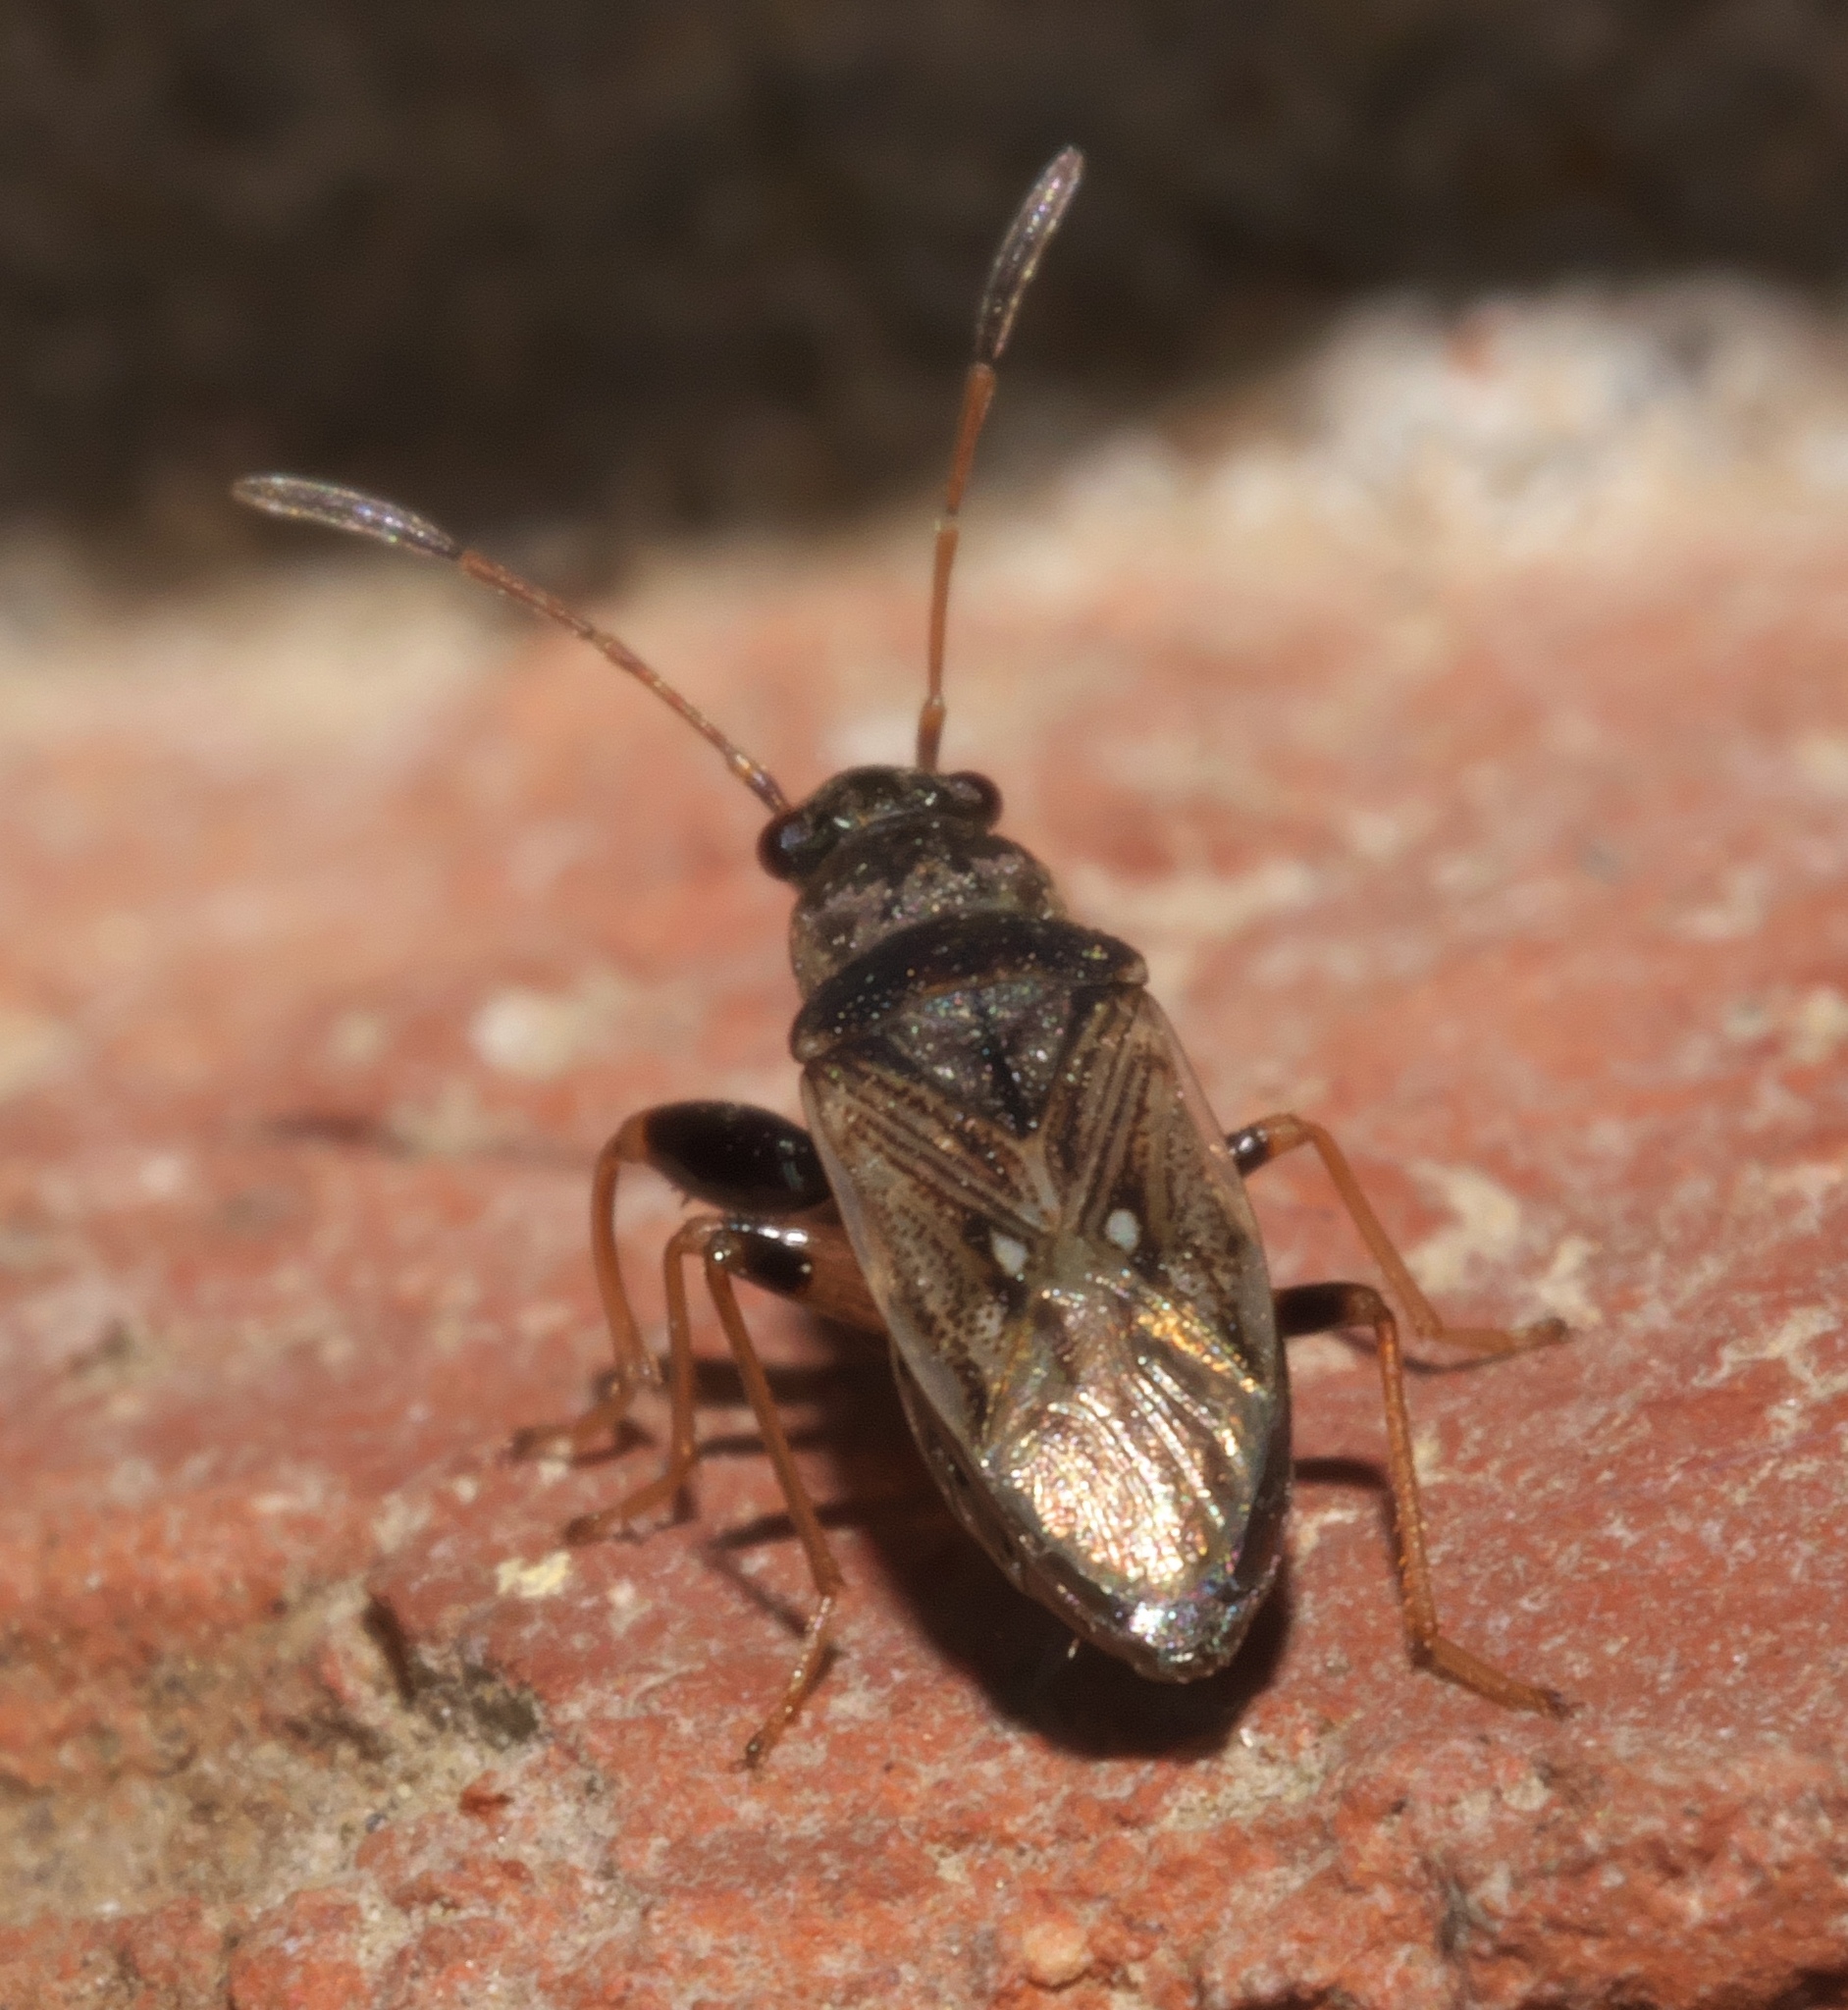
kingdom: Animalia
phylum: Arthropoda
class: Insecta
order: Hemiptera
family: Rhyparochromidae
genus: Pseudopachybrachius
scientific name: Pseudopachybrachius basalis
